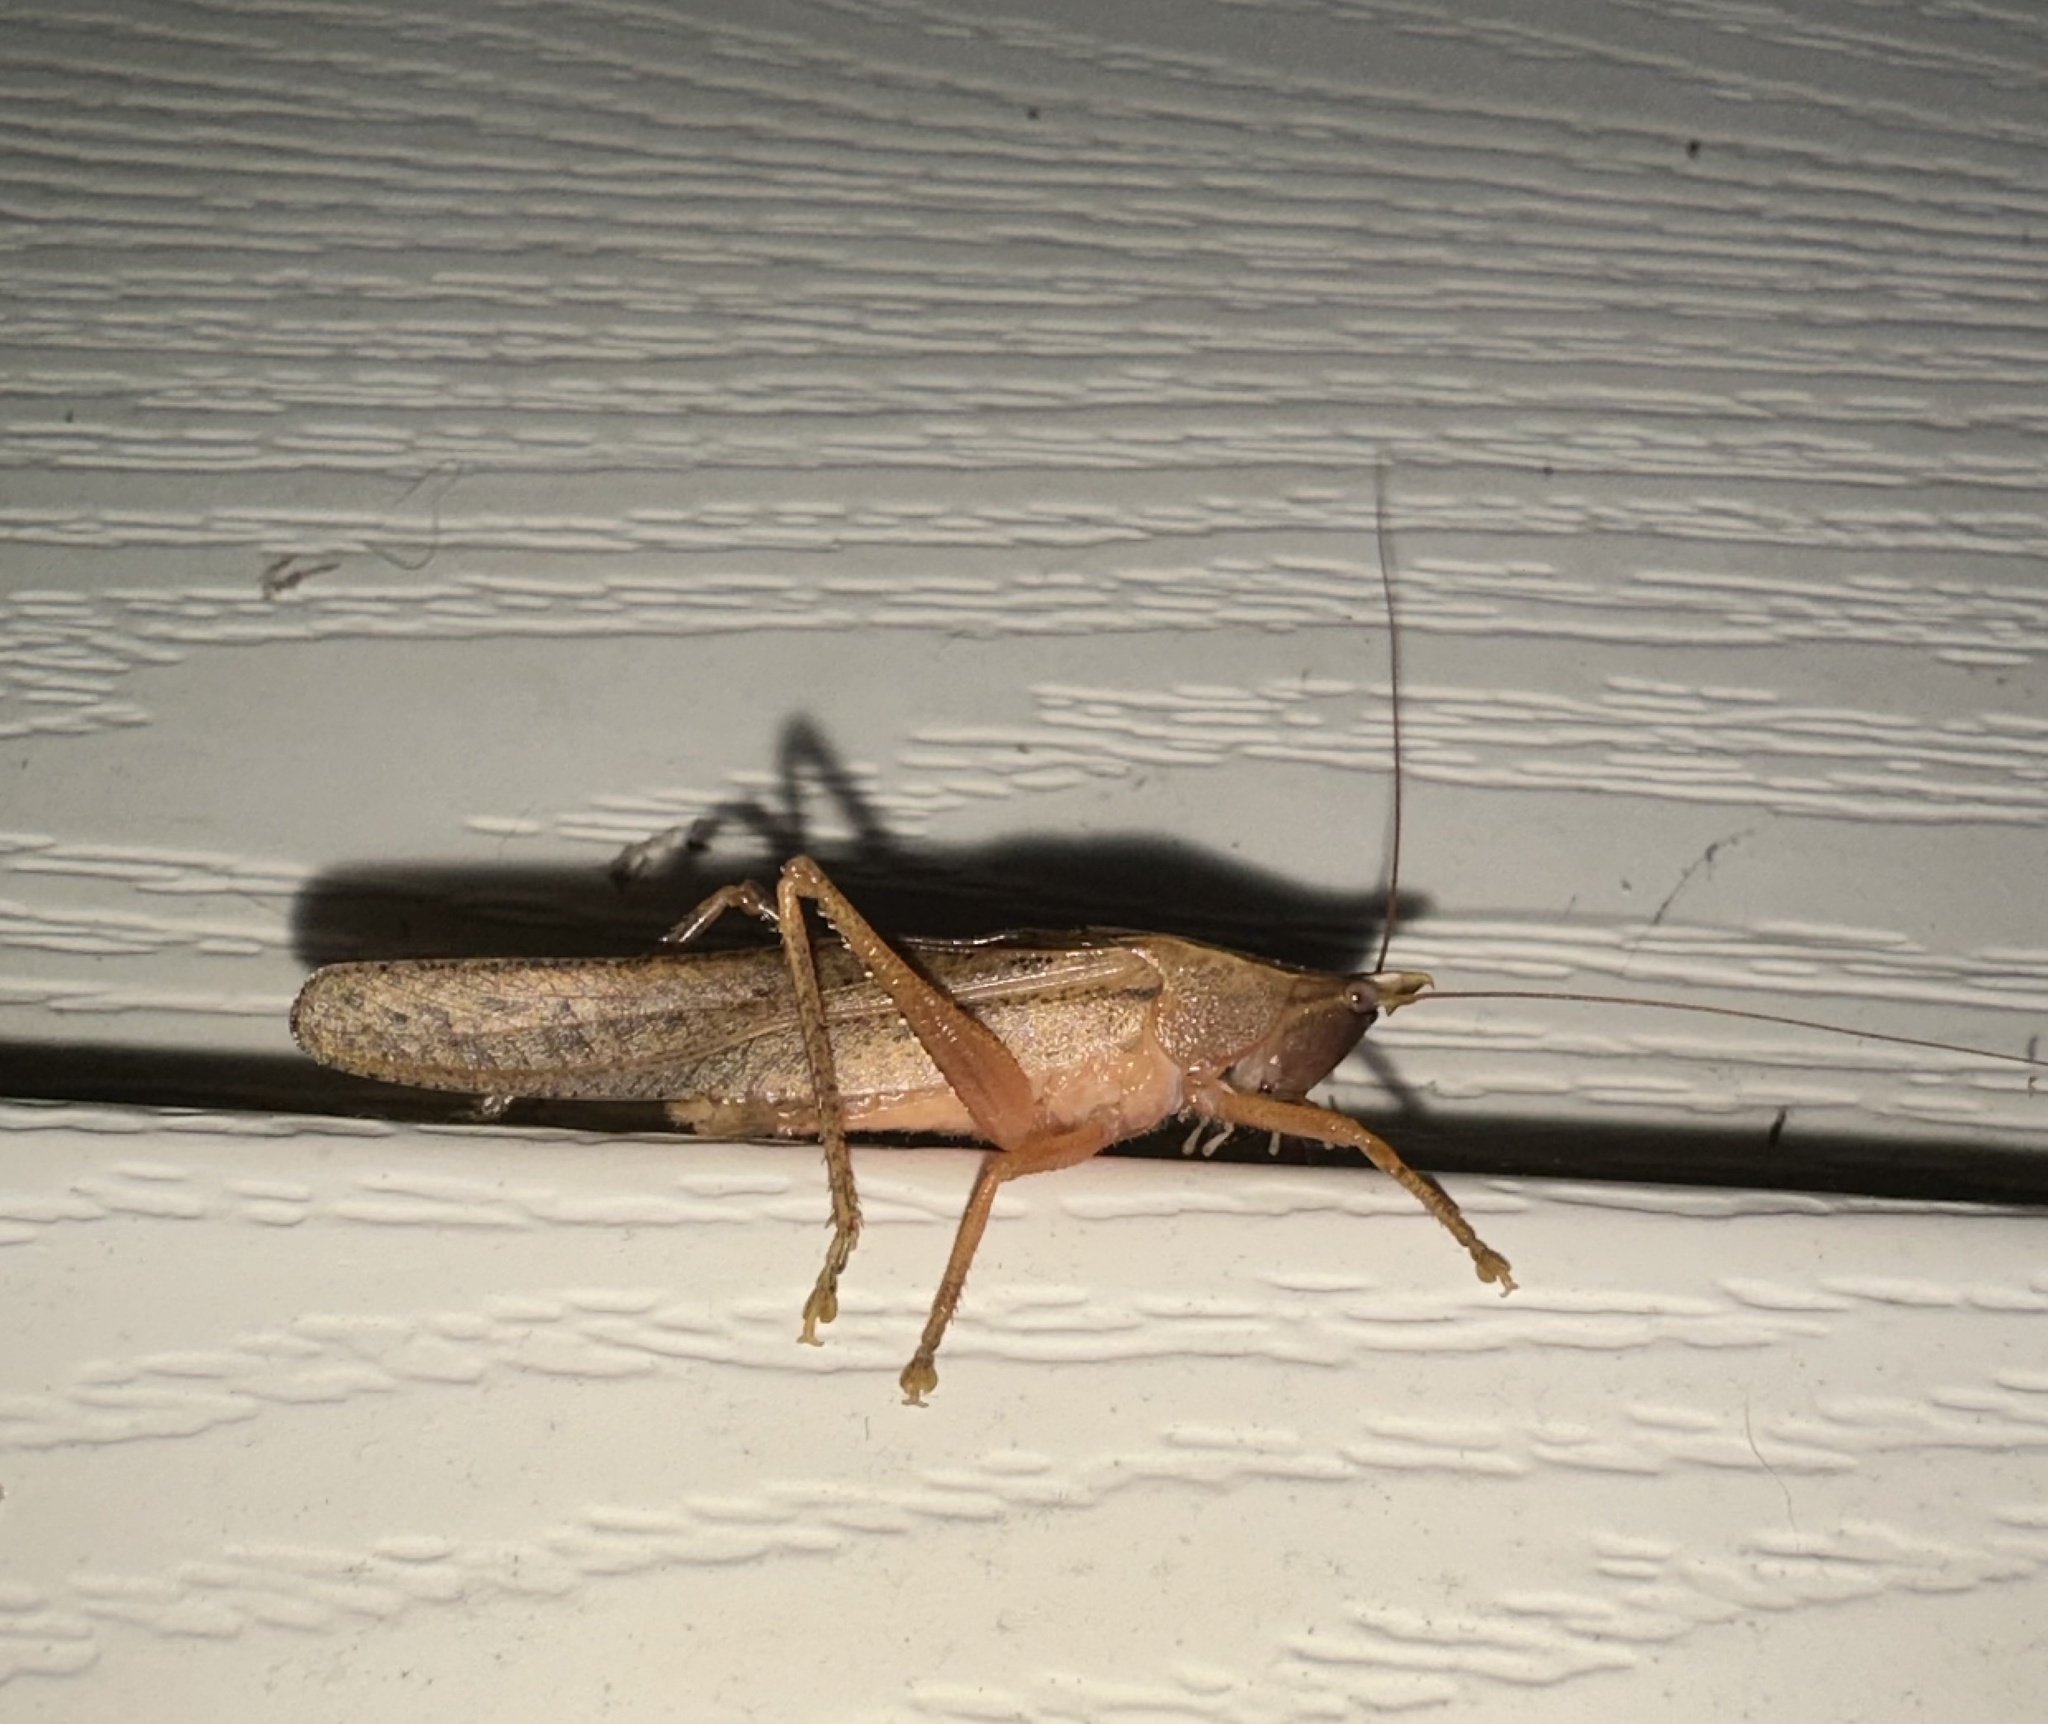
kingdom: Animalia
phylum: Arthropoda
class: Insecta
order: Orthoptera
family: Tettigoniidae
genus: Pyrgocorypha
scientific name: Pyrgocorypha uncinata
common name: Hook-faced conehead
